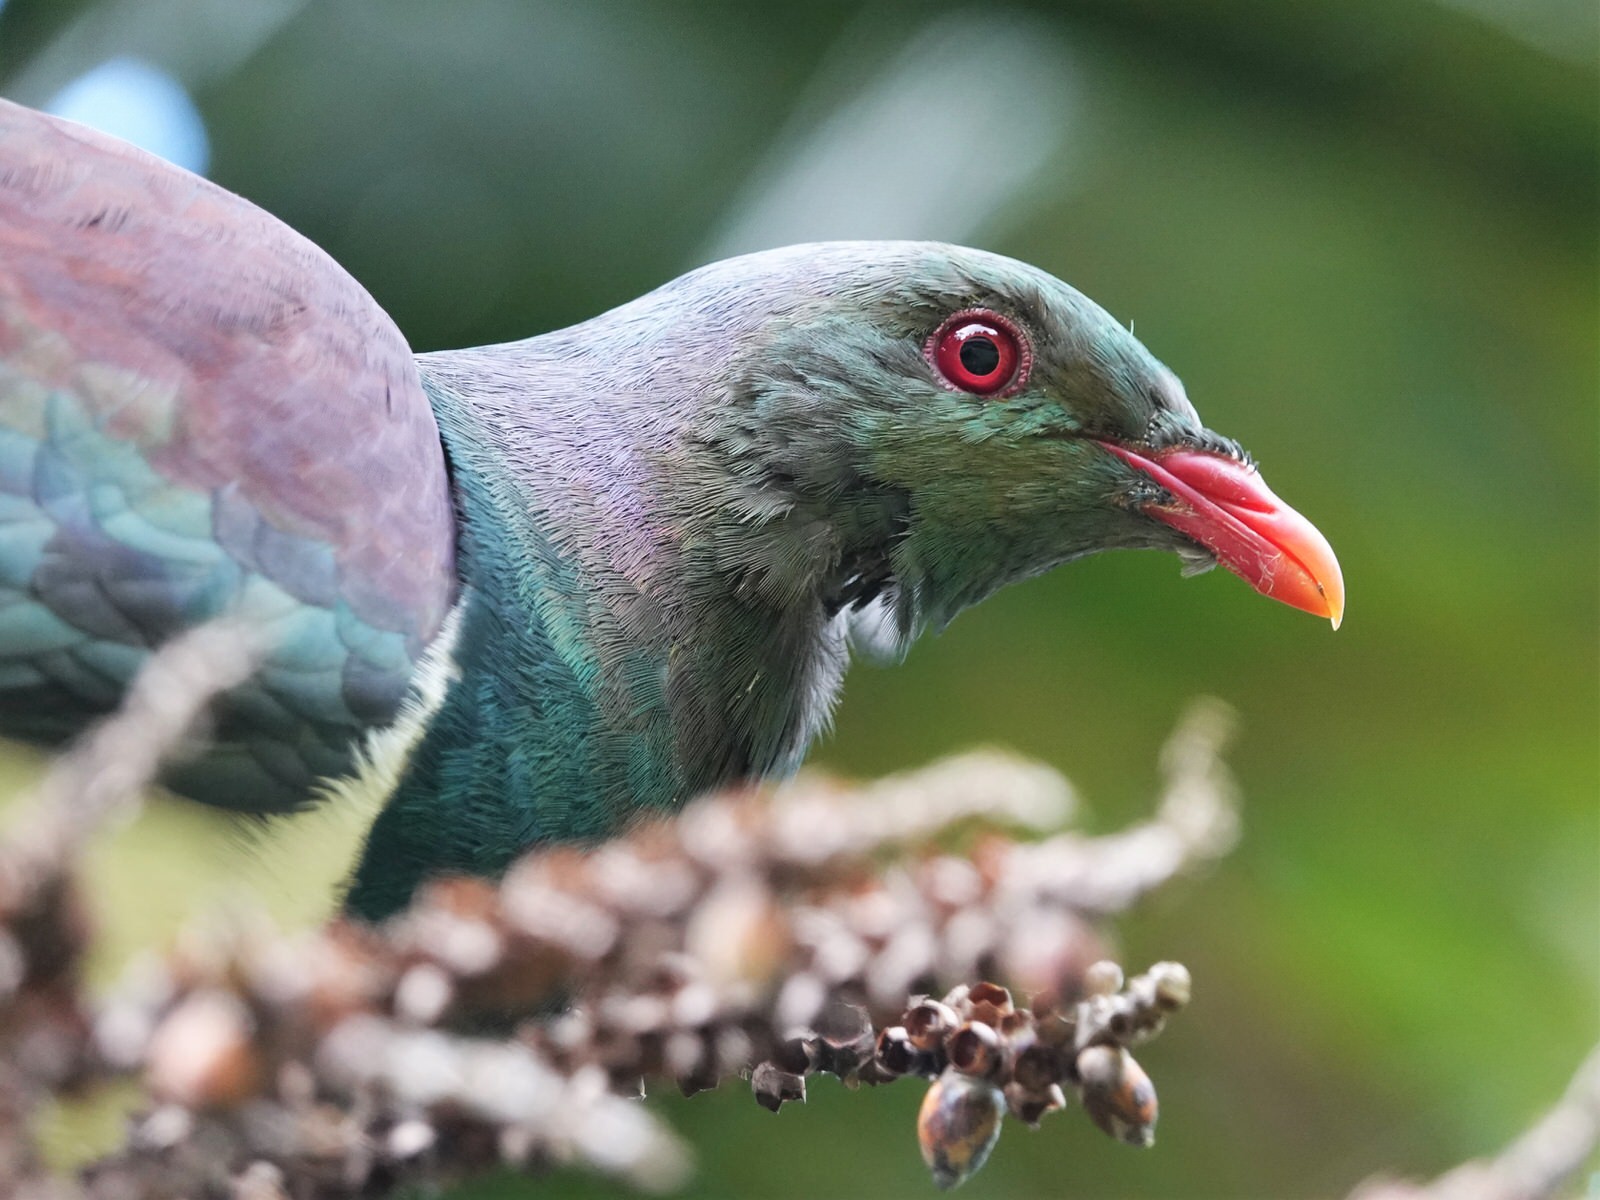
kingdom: Animalia
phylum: Chordata
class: Aves
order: Columbiformes
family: Columbidae
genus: Hemiphaga
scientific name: Hemiphaga novaeseelandiae
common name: New zealand pigeon
